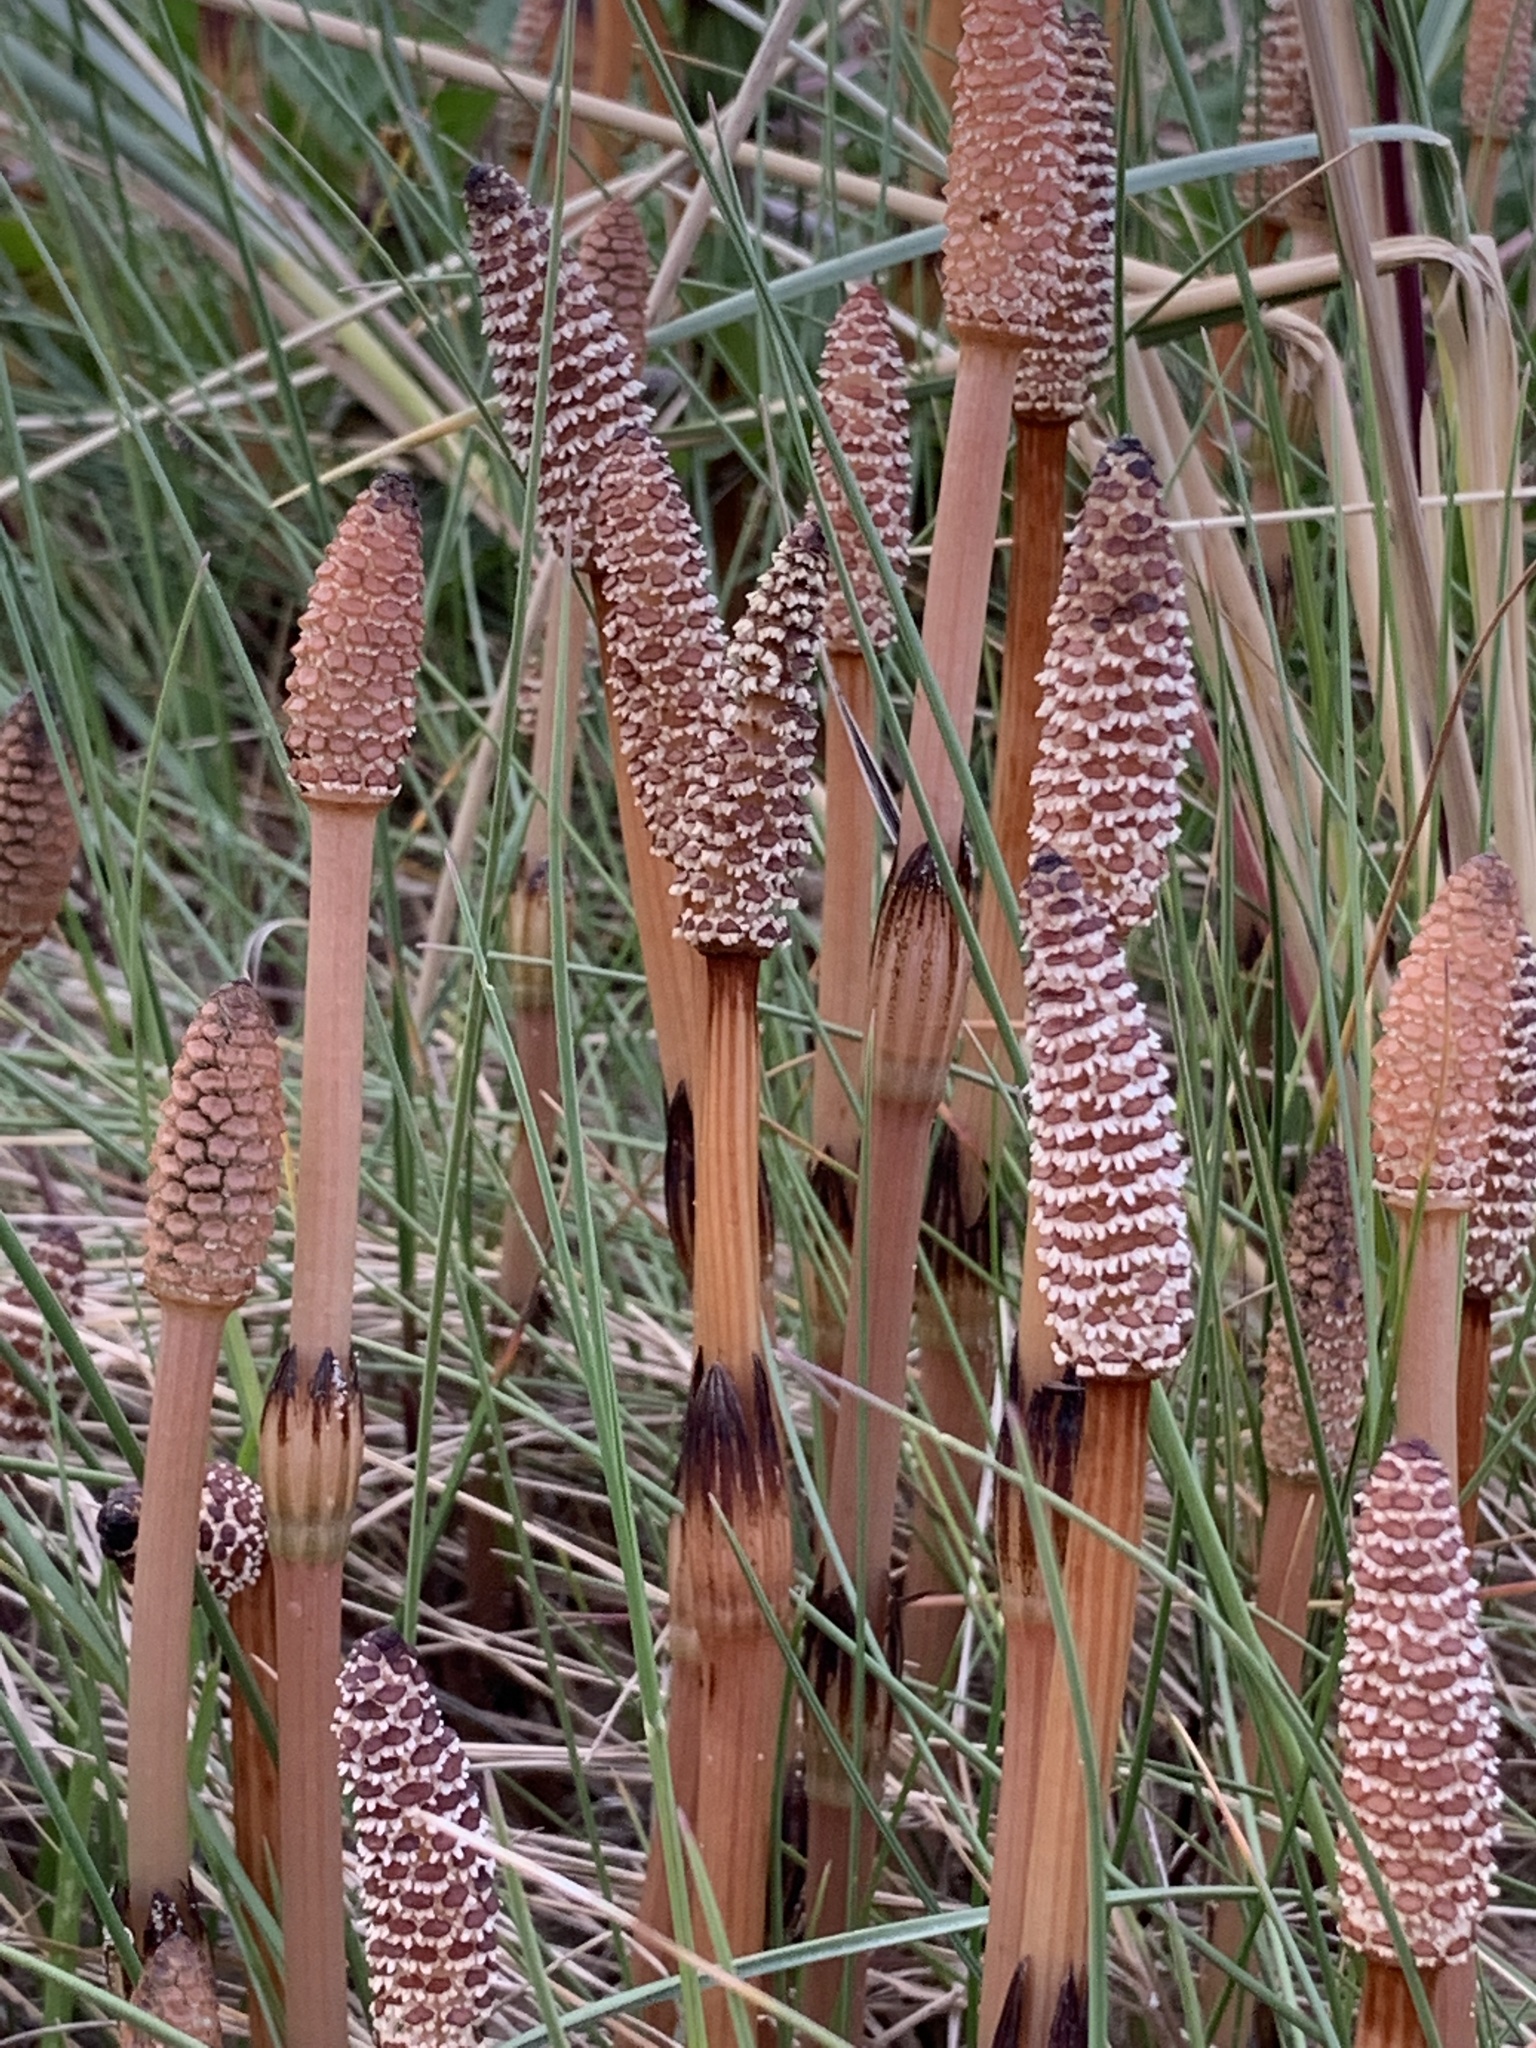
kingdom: Plantae
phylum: Tracheophyta
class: Polypodiopsida
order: Equisetales
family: Equisetaceae
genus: Equisetum
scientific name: Equisetum arvense
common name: Field horsetail
